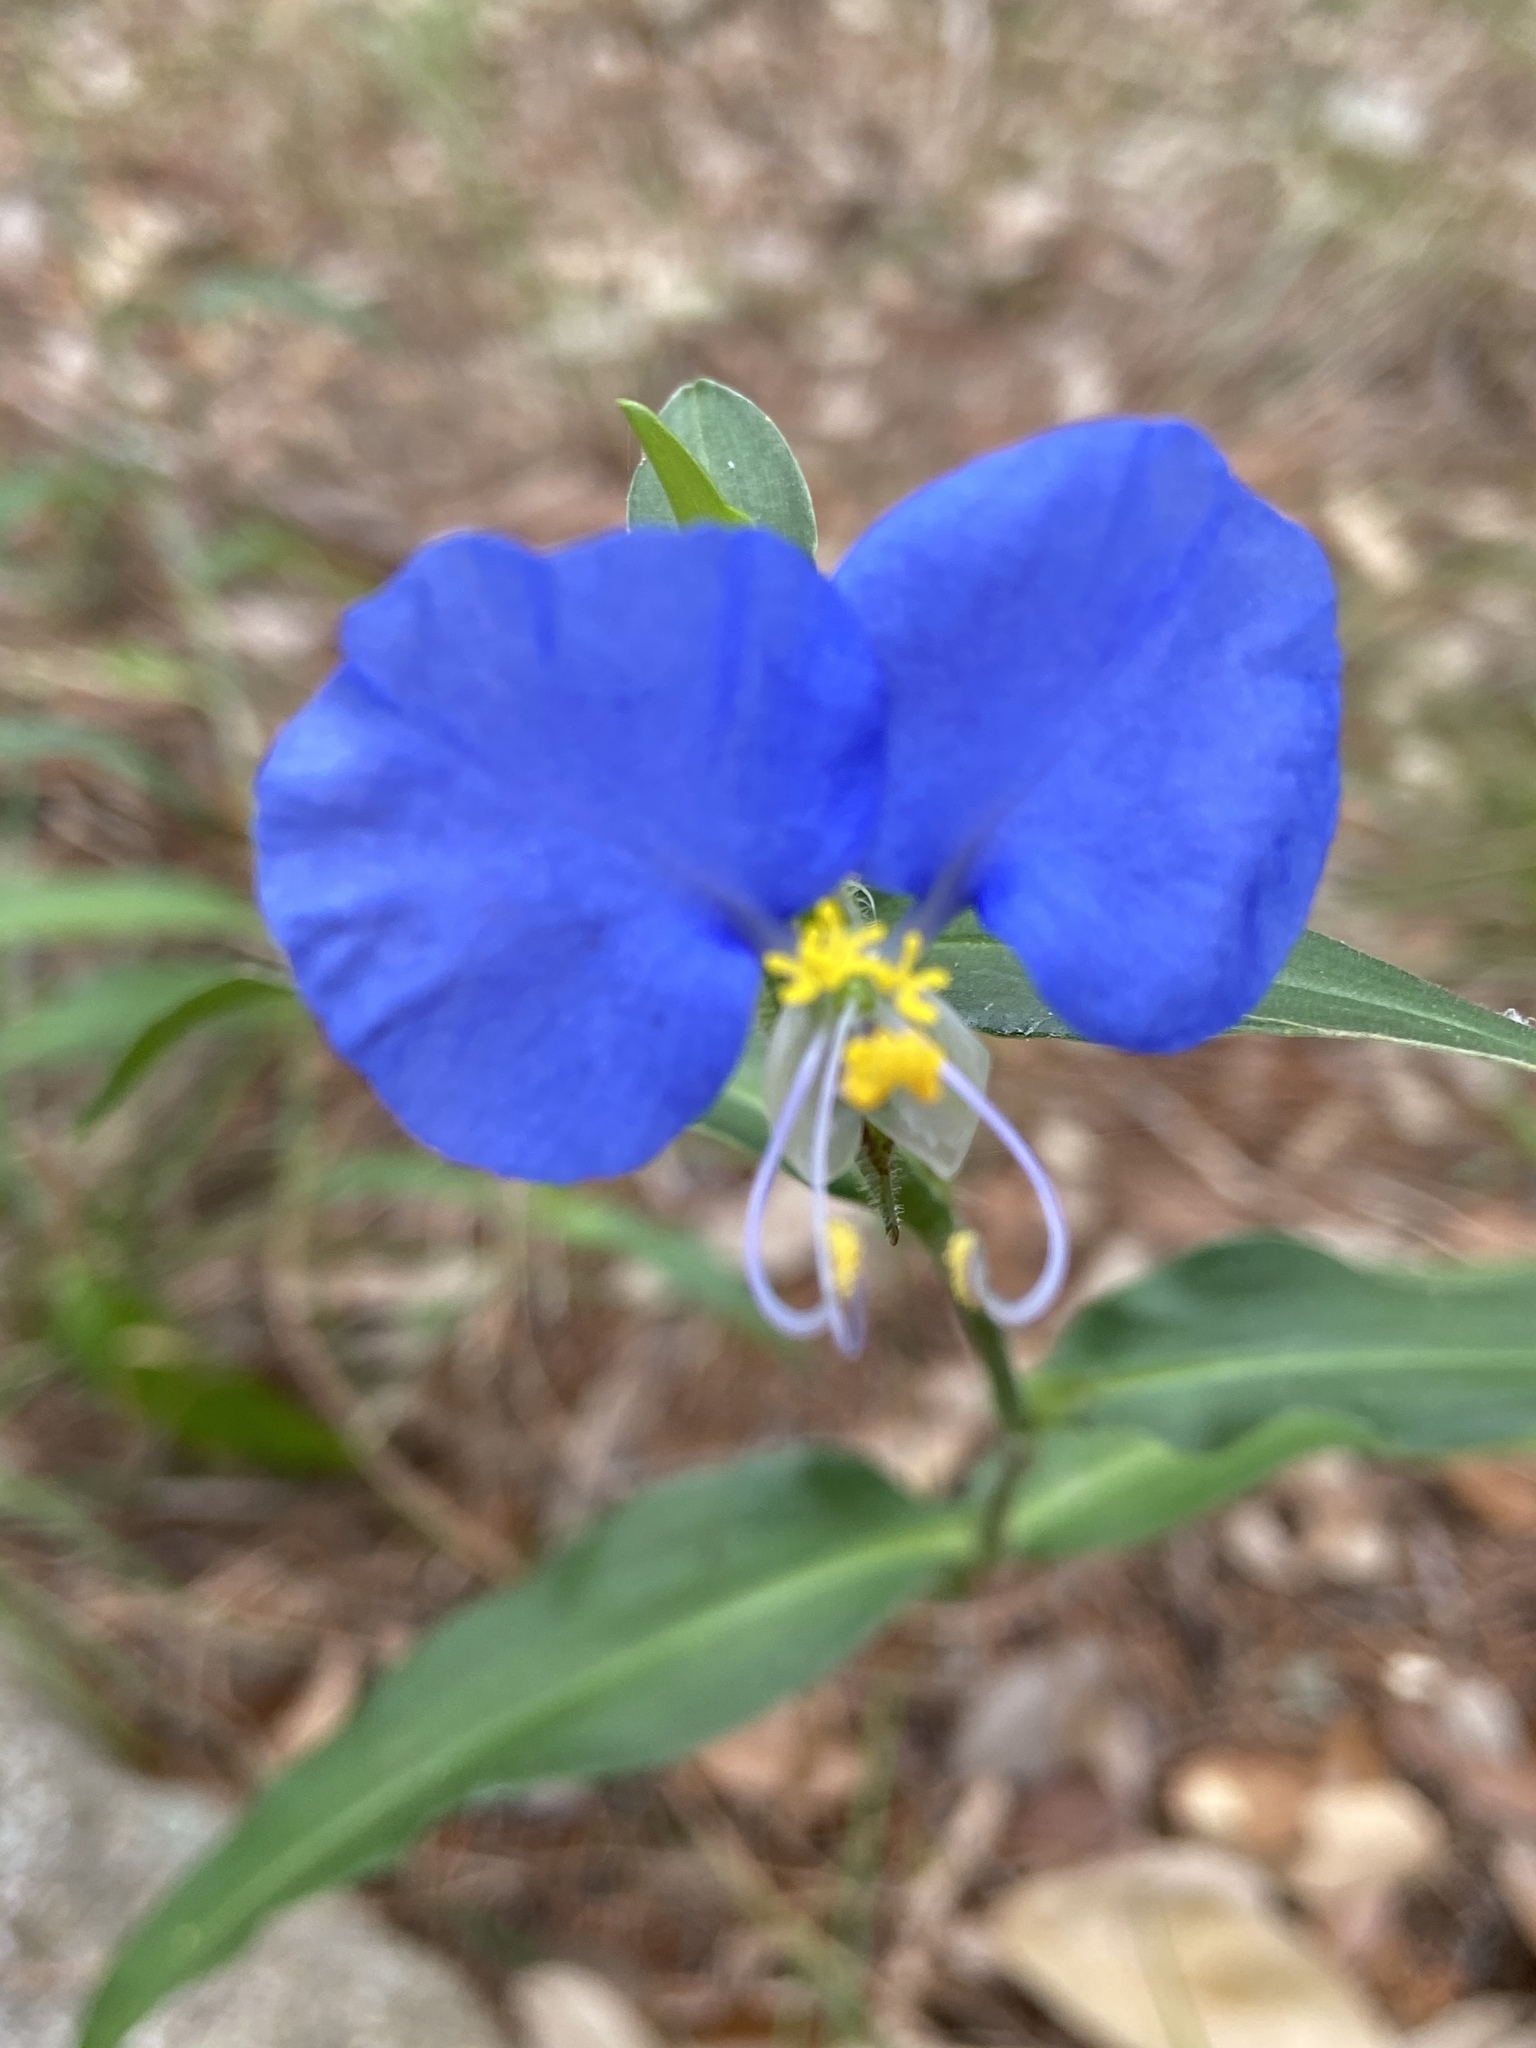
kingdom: Plantae
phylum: Tracheophyta
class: Liliopsida
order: Commelinales
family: Commelinaceae
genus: Commelina
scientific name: Commelina erecta
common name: Blousel blommetjie
